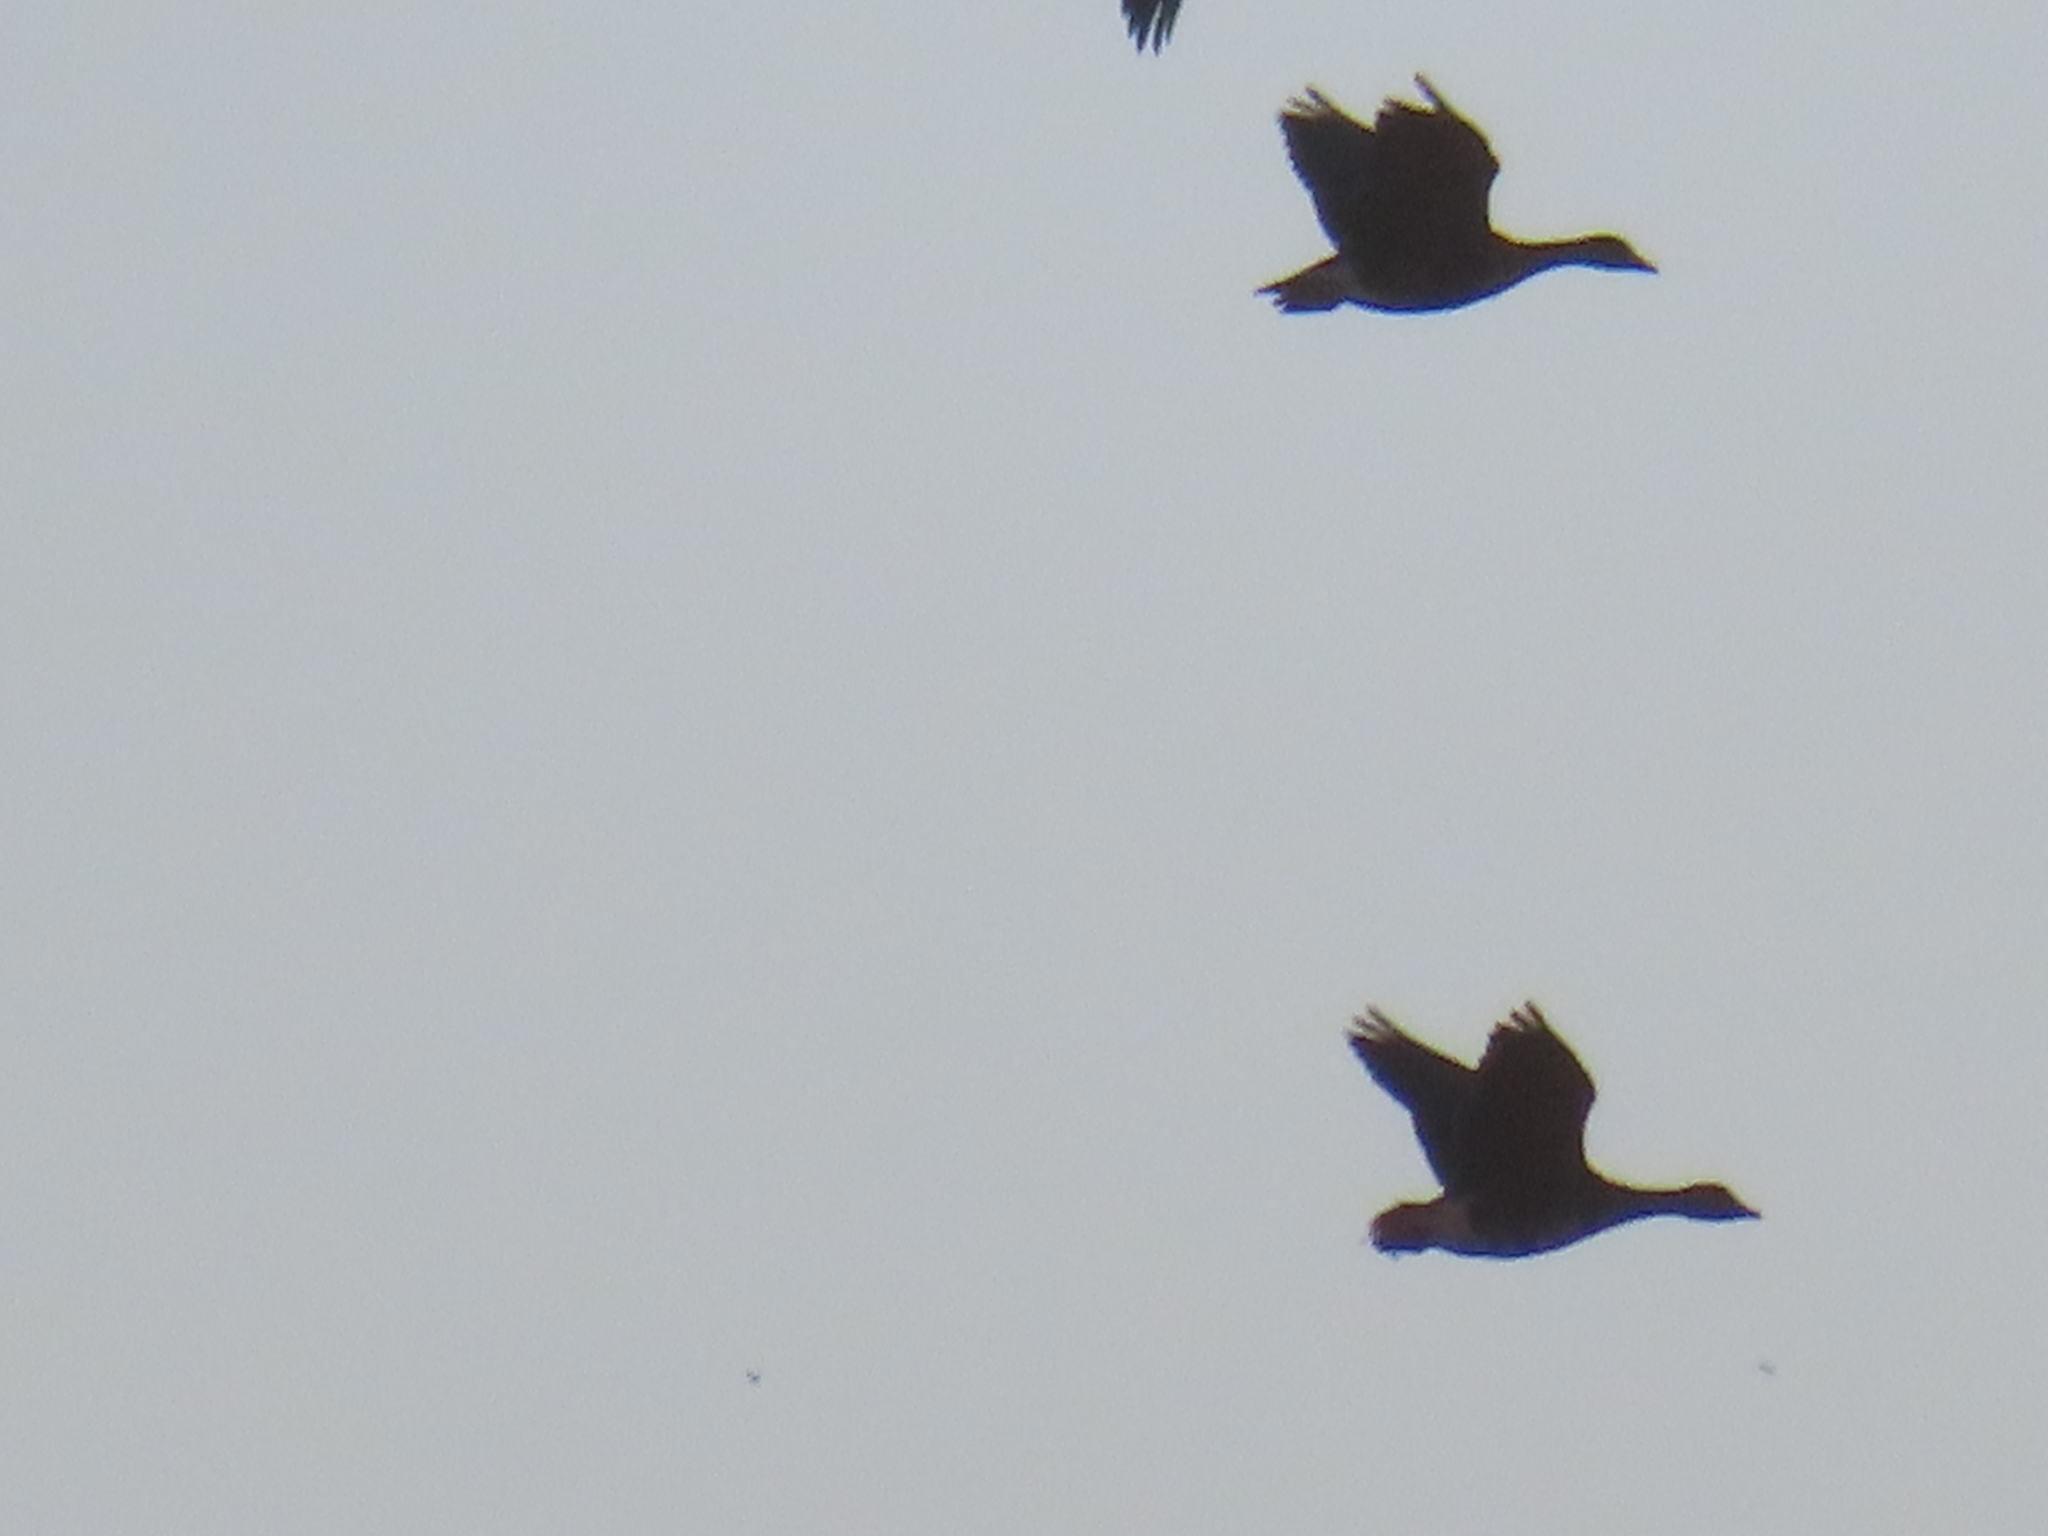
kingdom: Animalia
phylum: Chordata
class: Aves
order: Anseriformes
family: Anatidae
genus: Anser
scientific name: Anser caerulescens
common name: Snow goose
